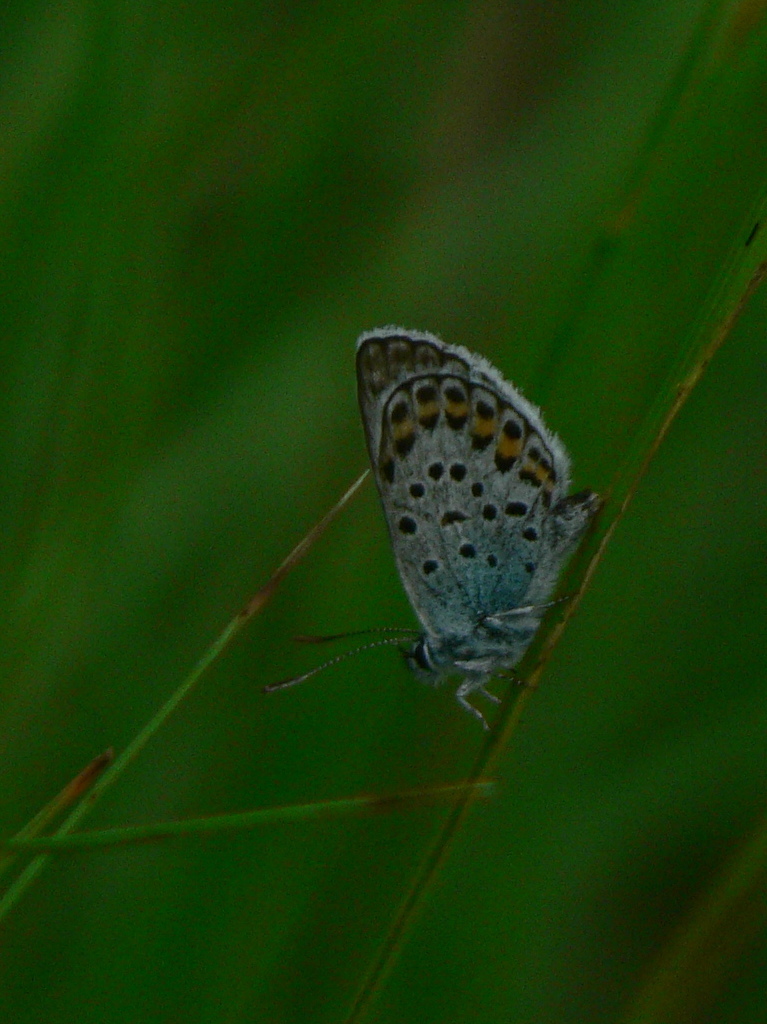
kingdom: Animalia
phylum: Arthropoda
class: Insecta
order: Lepidoptera
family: Lycaenidae
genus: Plebejus
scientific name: Plebejus argus
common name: Silver-studded blue
